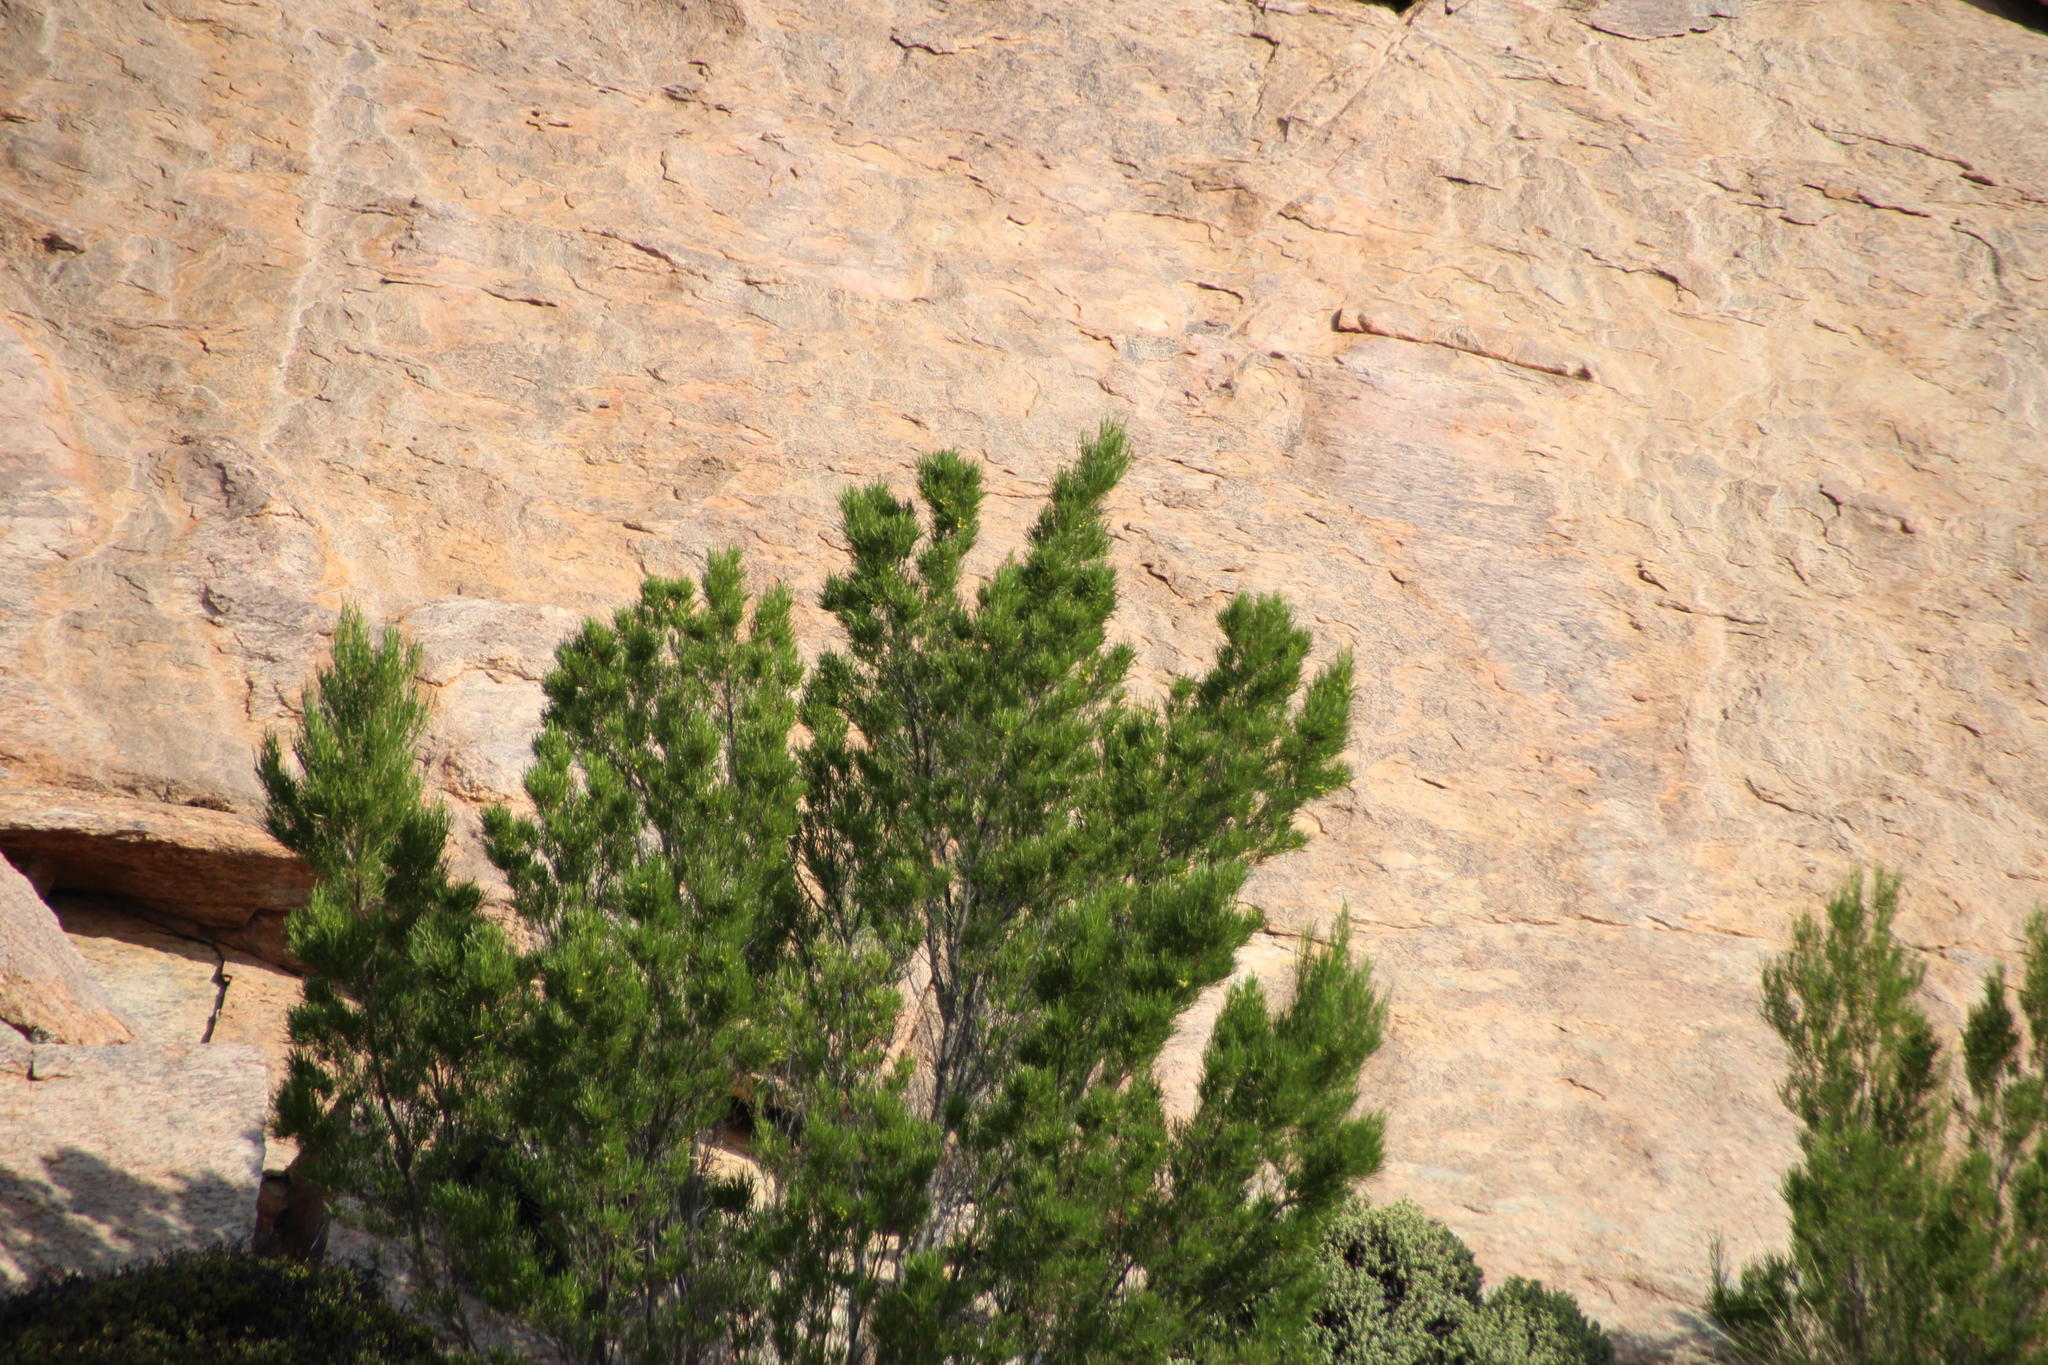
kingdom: Plantae
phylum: Tracheophyta
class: Magnoliopsida
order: Sapindales
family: Sapindaceae
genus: Dodonaea
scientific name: Dodonaea viscosa
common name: Hopbush
